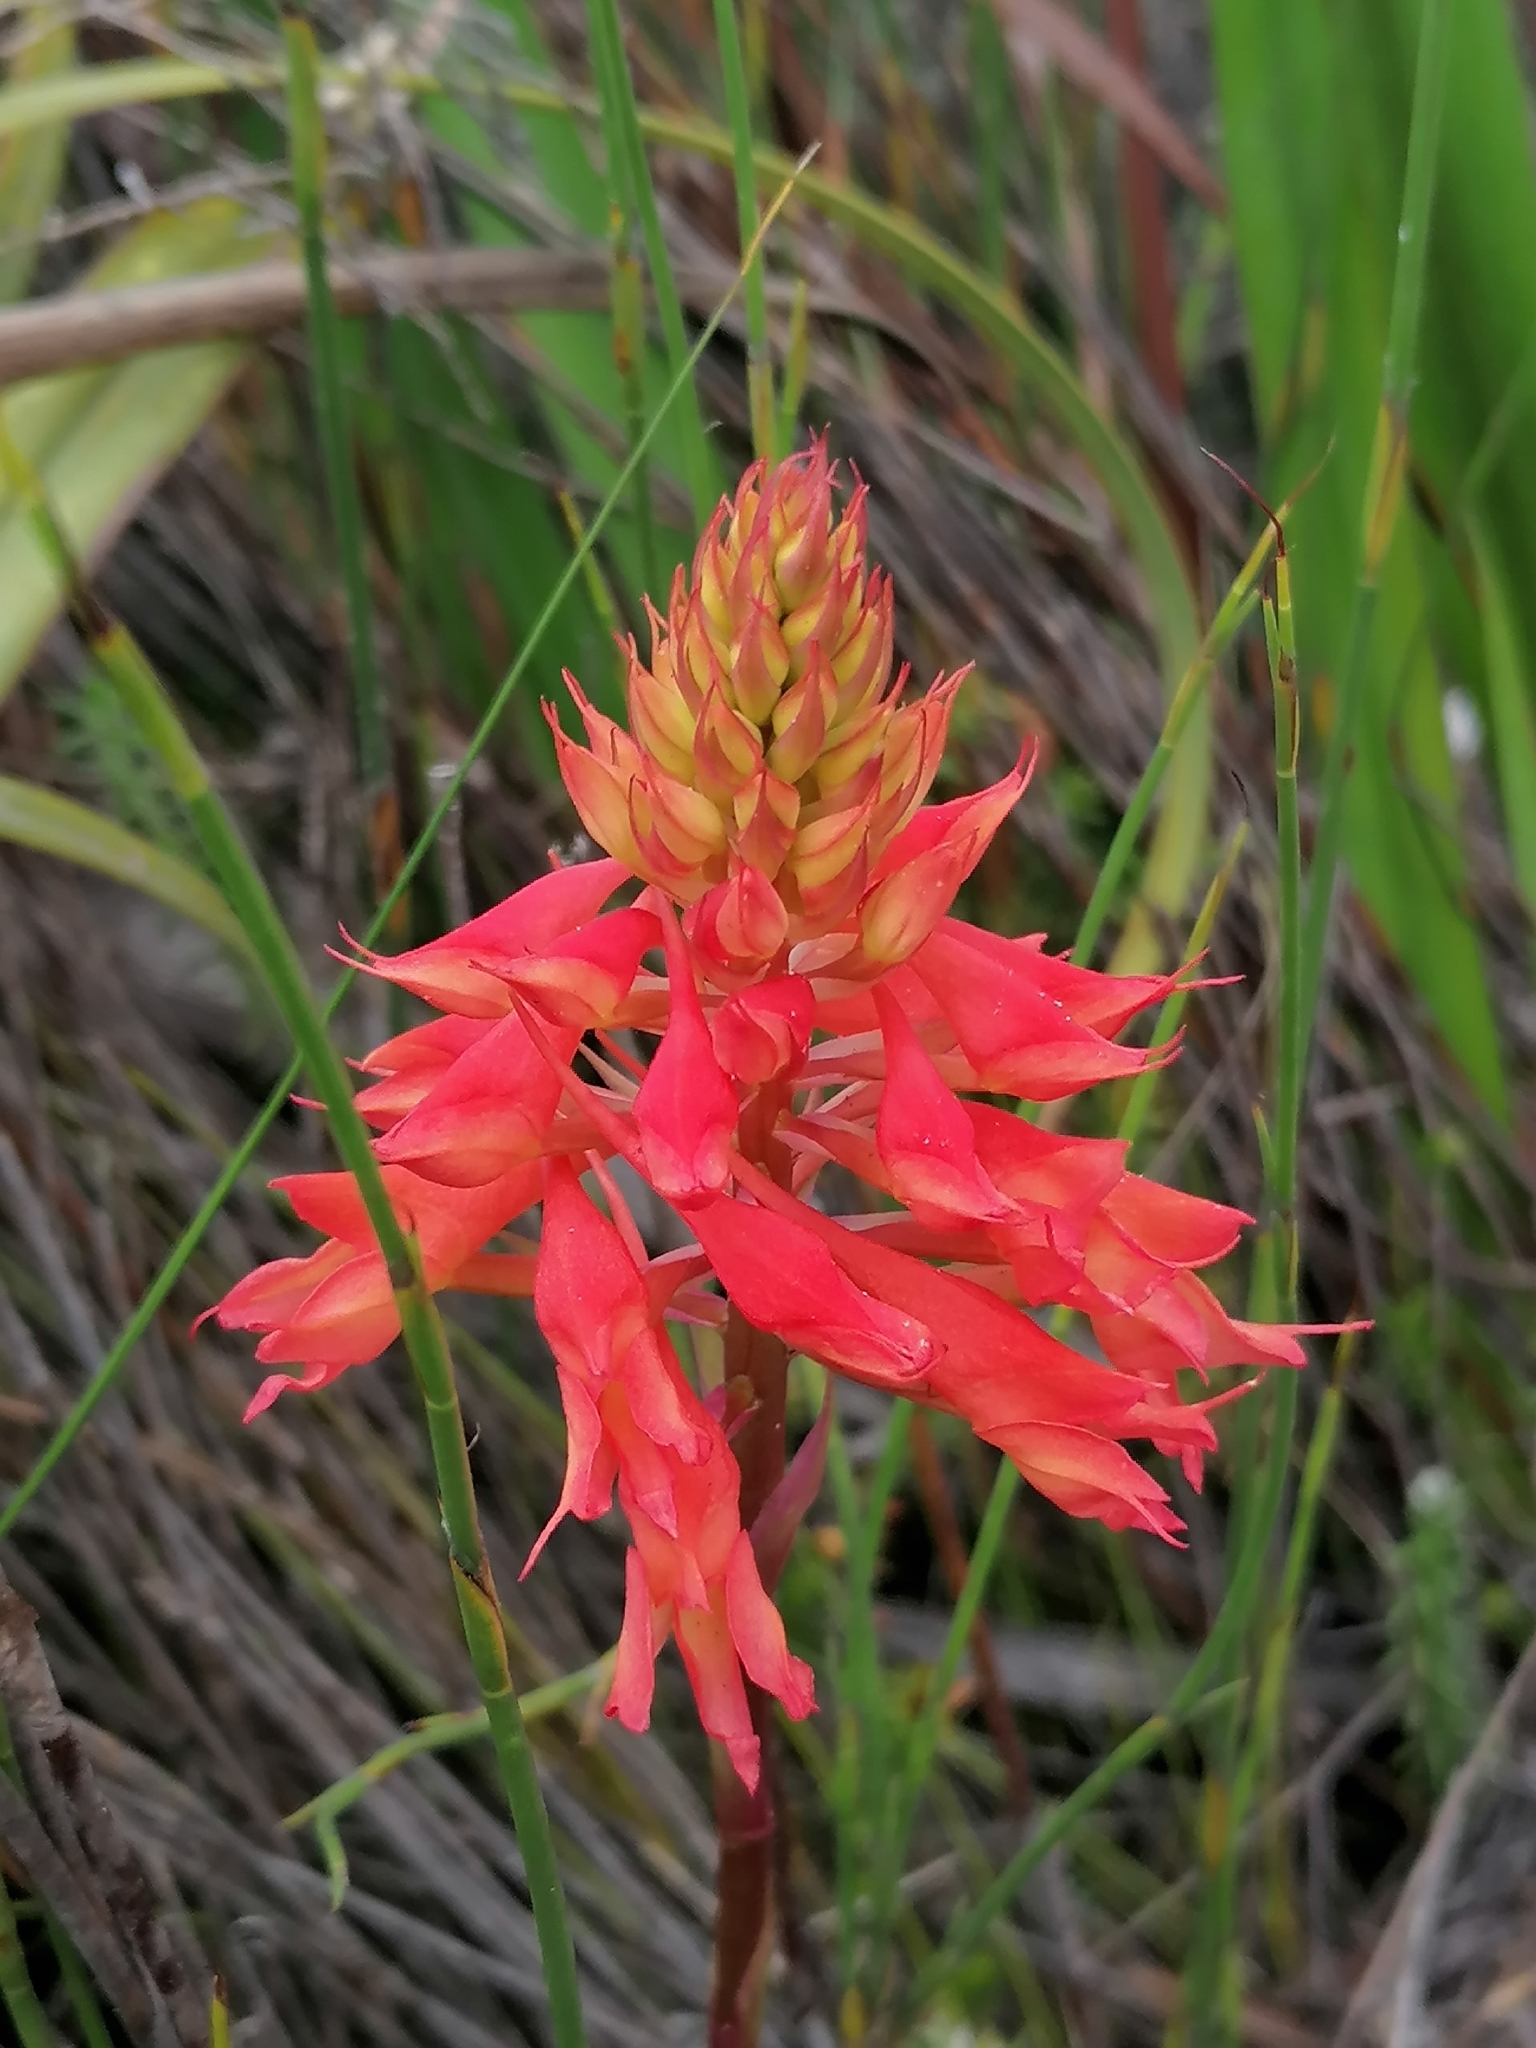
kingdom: Plantae
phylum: Tracheophyta
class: Liliopsida
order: Asparagales
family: Orchidaceae
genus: Disa
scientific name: Disa ferruginea
